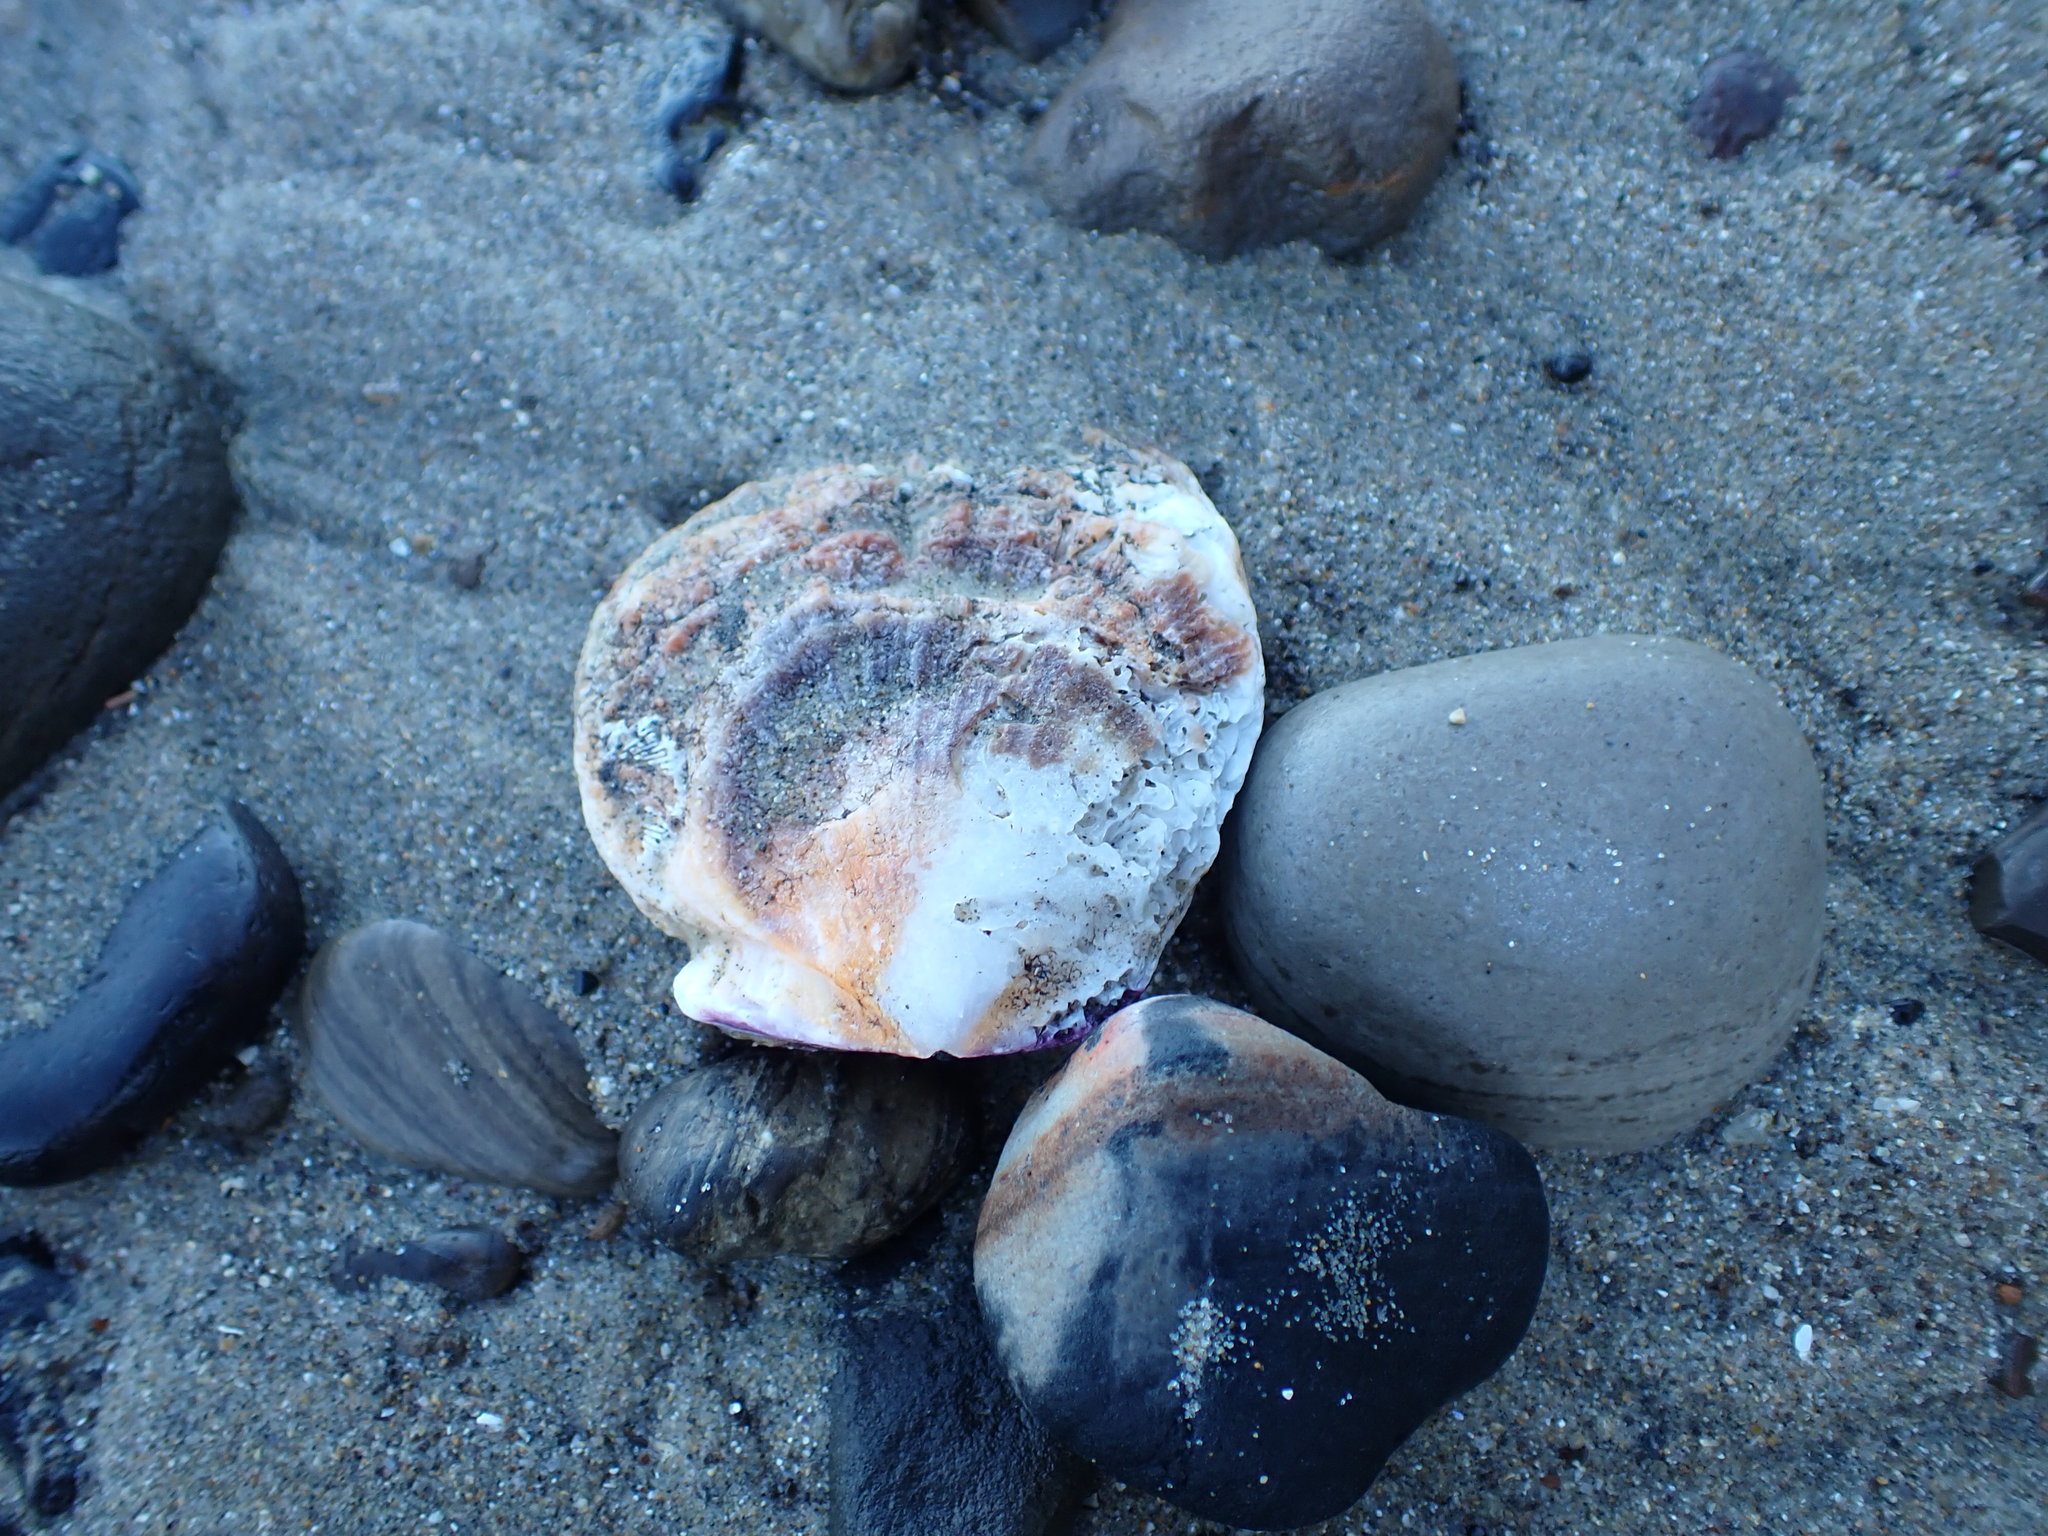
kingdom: Animalia
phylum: Mollusca
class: Bivalvia
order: Pectinida
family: Pectinidae
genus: Crassadoma
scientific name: Crassadoma gigantea
